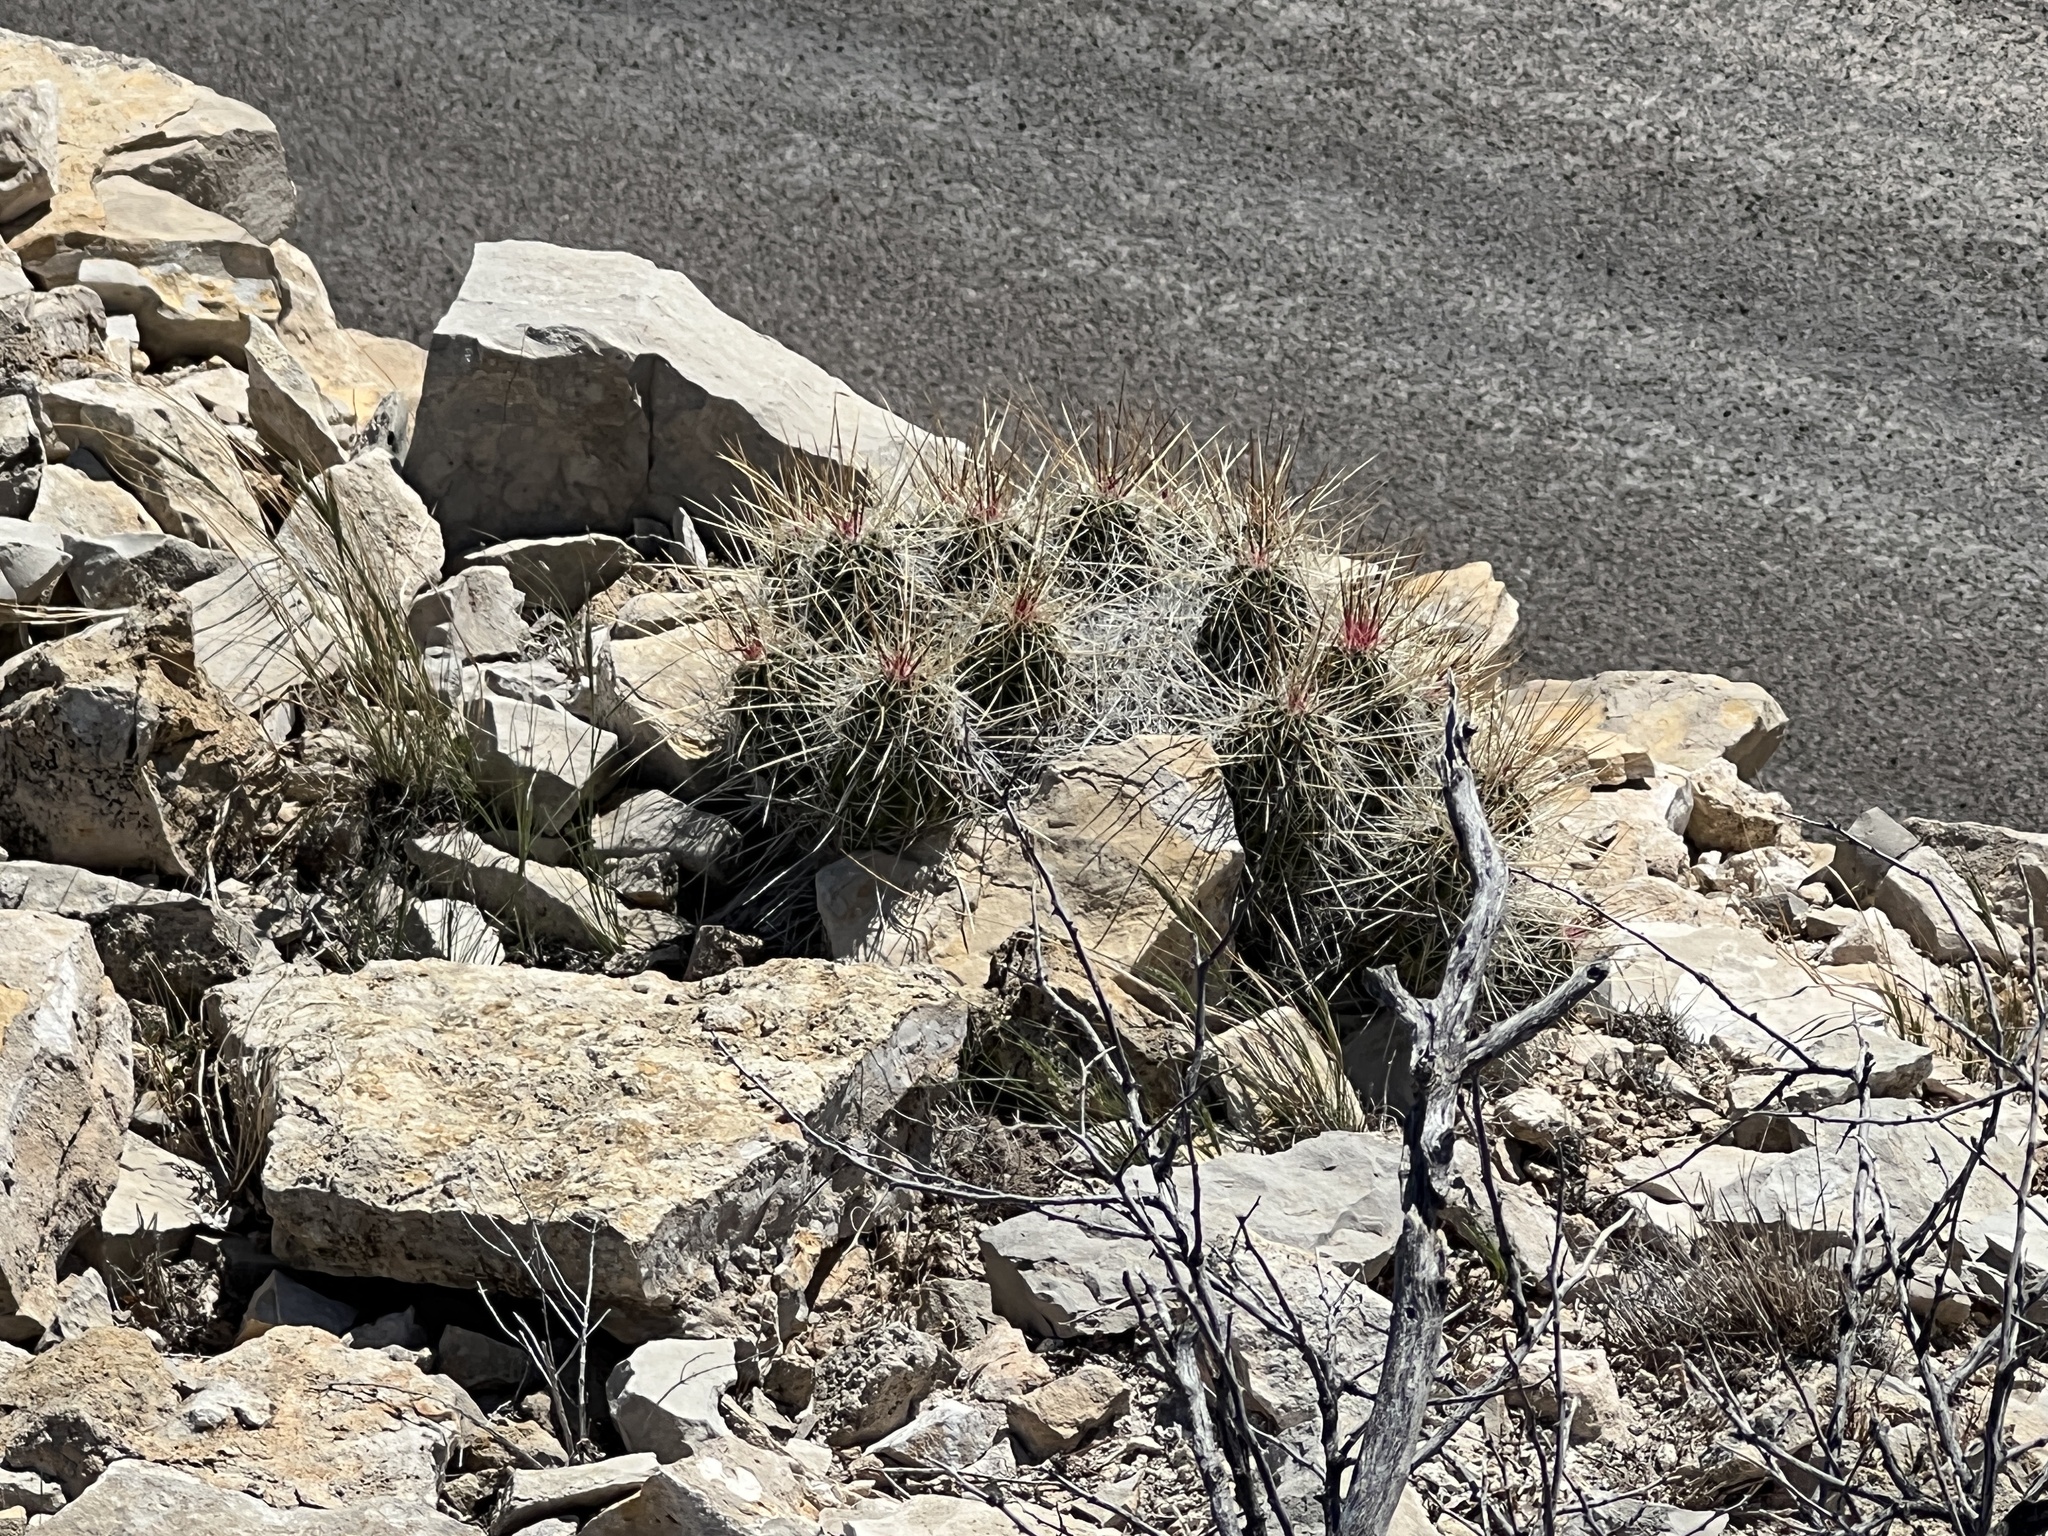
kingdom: Plantae
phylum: Tracheophyta
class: Magnoliopsida
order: Caryophyllales
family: Cactaceae
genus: Echinocereus
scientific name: Echinocereus stramineus
